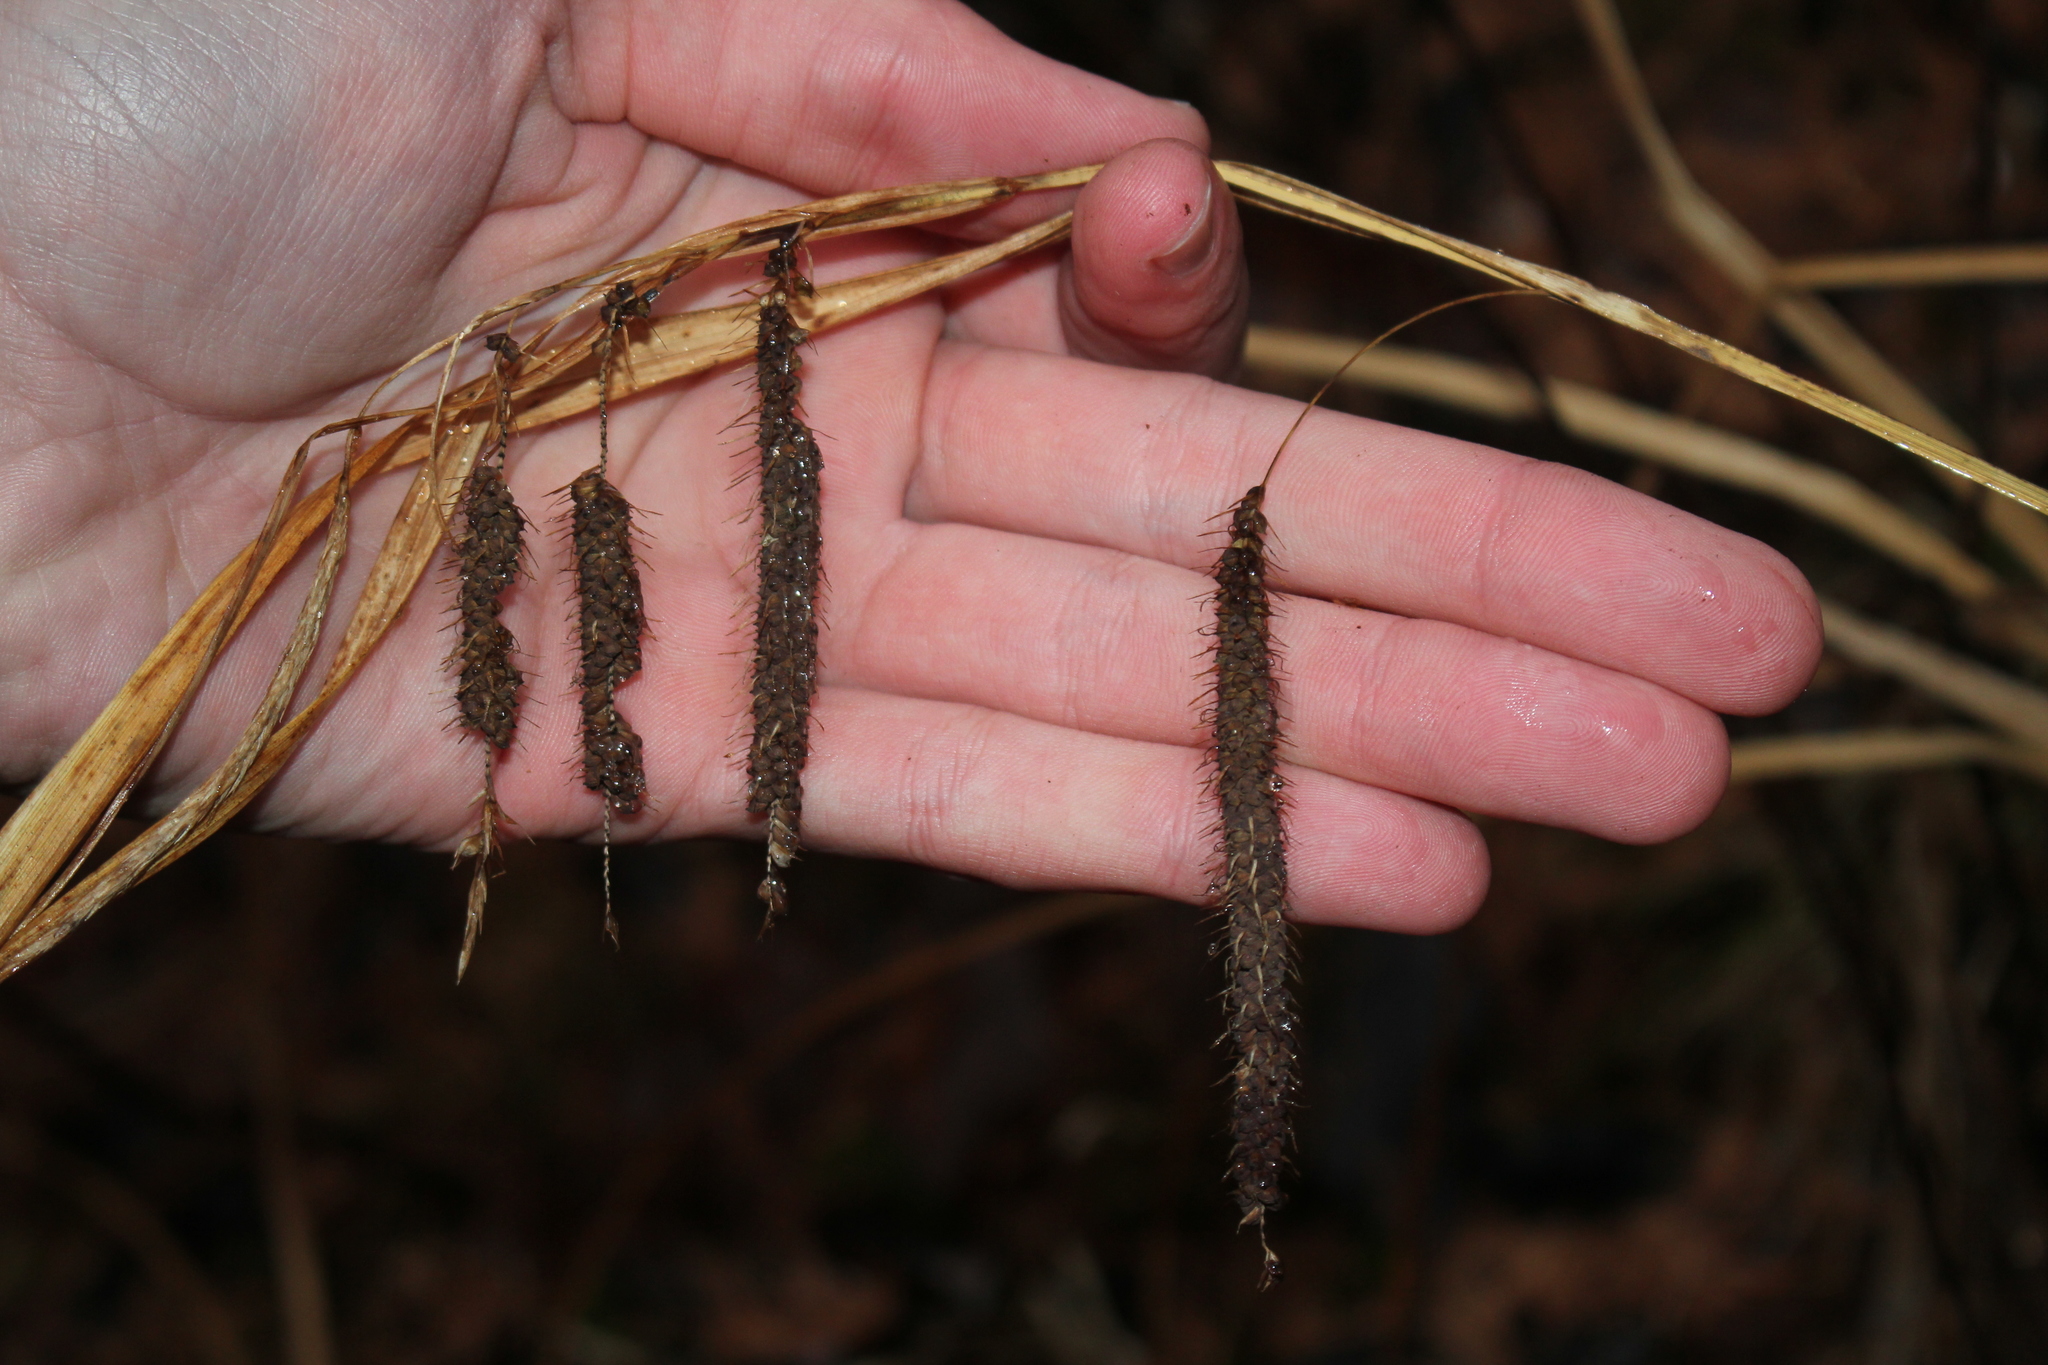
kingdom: Plantae
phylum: Tracheophyta
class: Liliopsida
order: Poales
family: Cyperaceae
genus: Carex
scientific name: Carex crinita
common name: Fringed sedge
